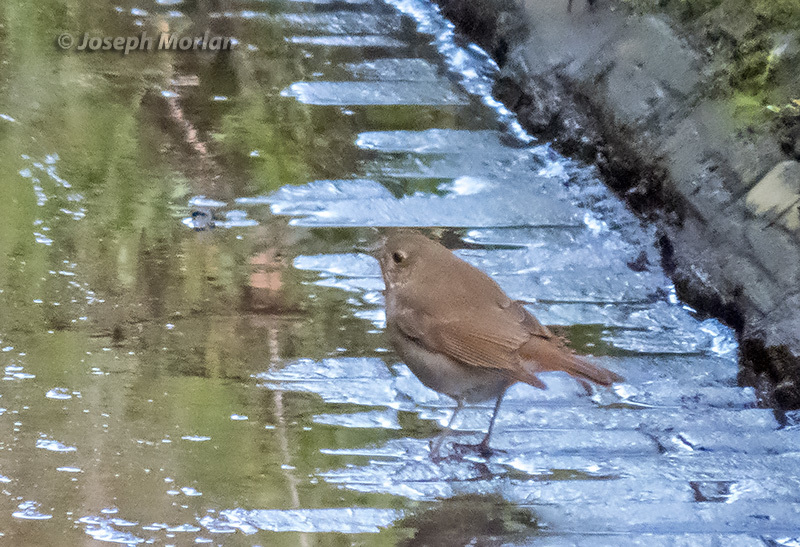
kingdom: Animalia
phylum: Chordata
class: Aves
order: Passeriformes
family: Turdidae
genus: Catharus
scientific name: Catharus guttatus
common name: Hermit thrush
